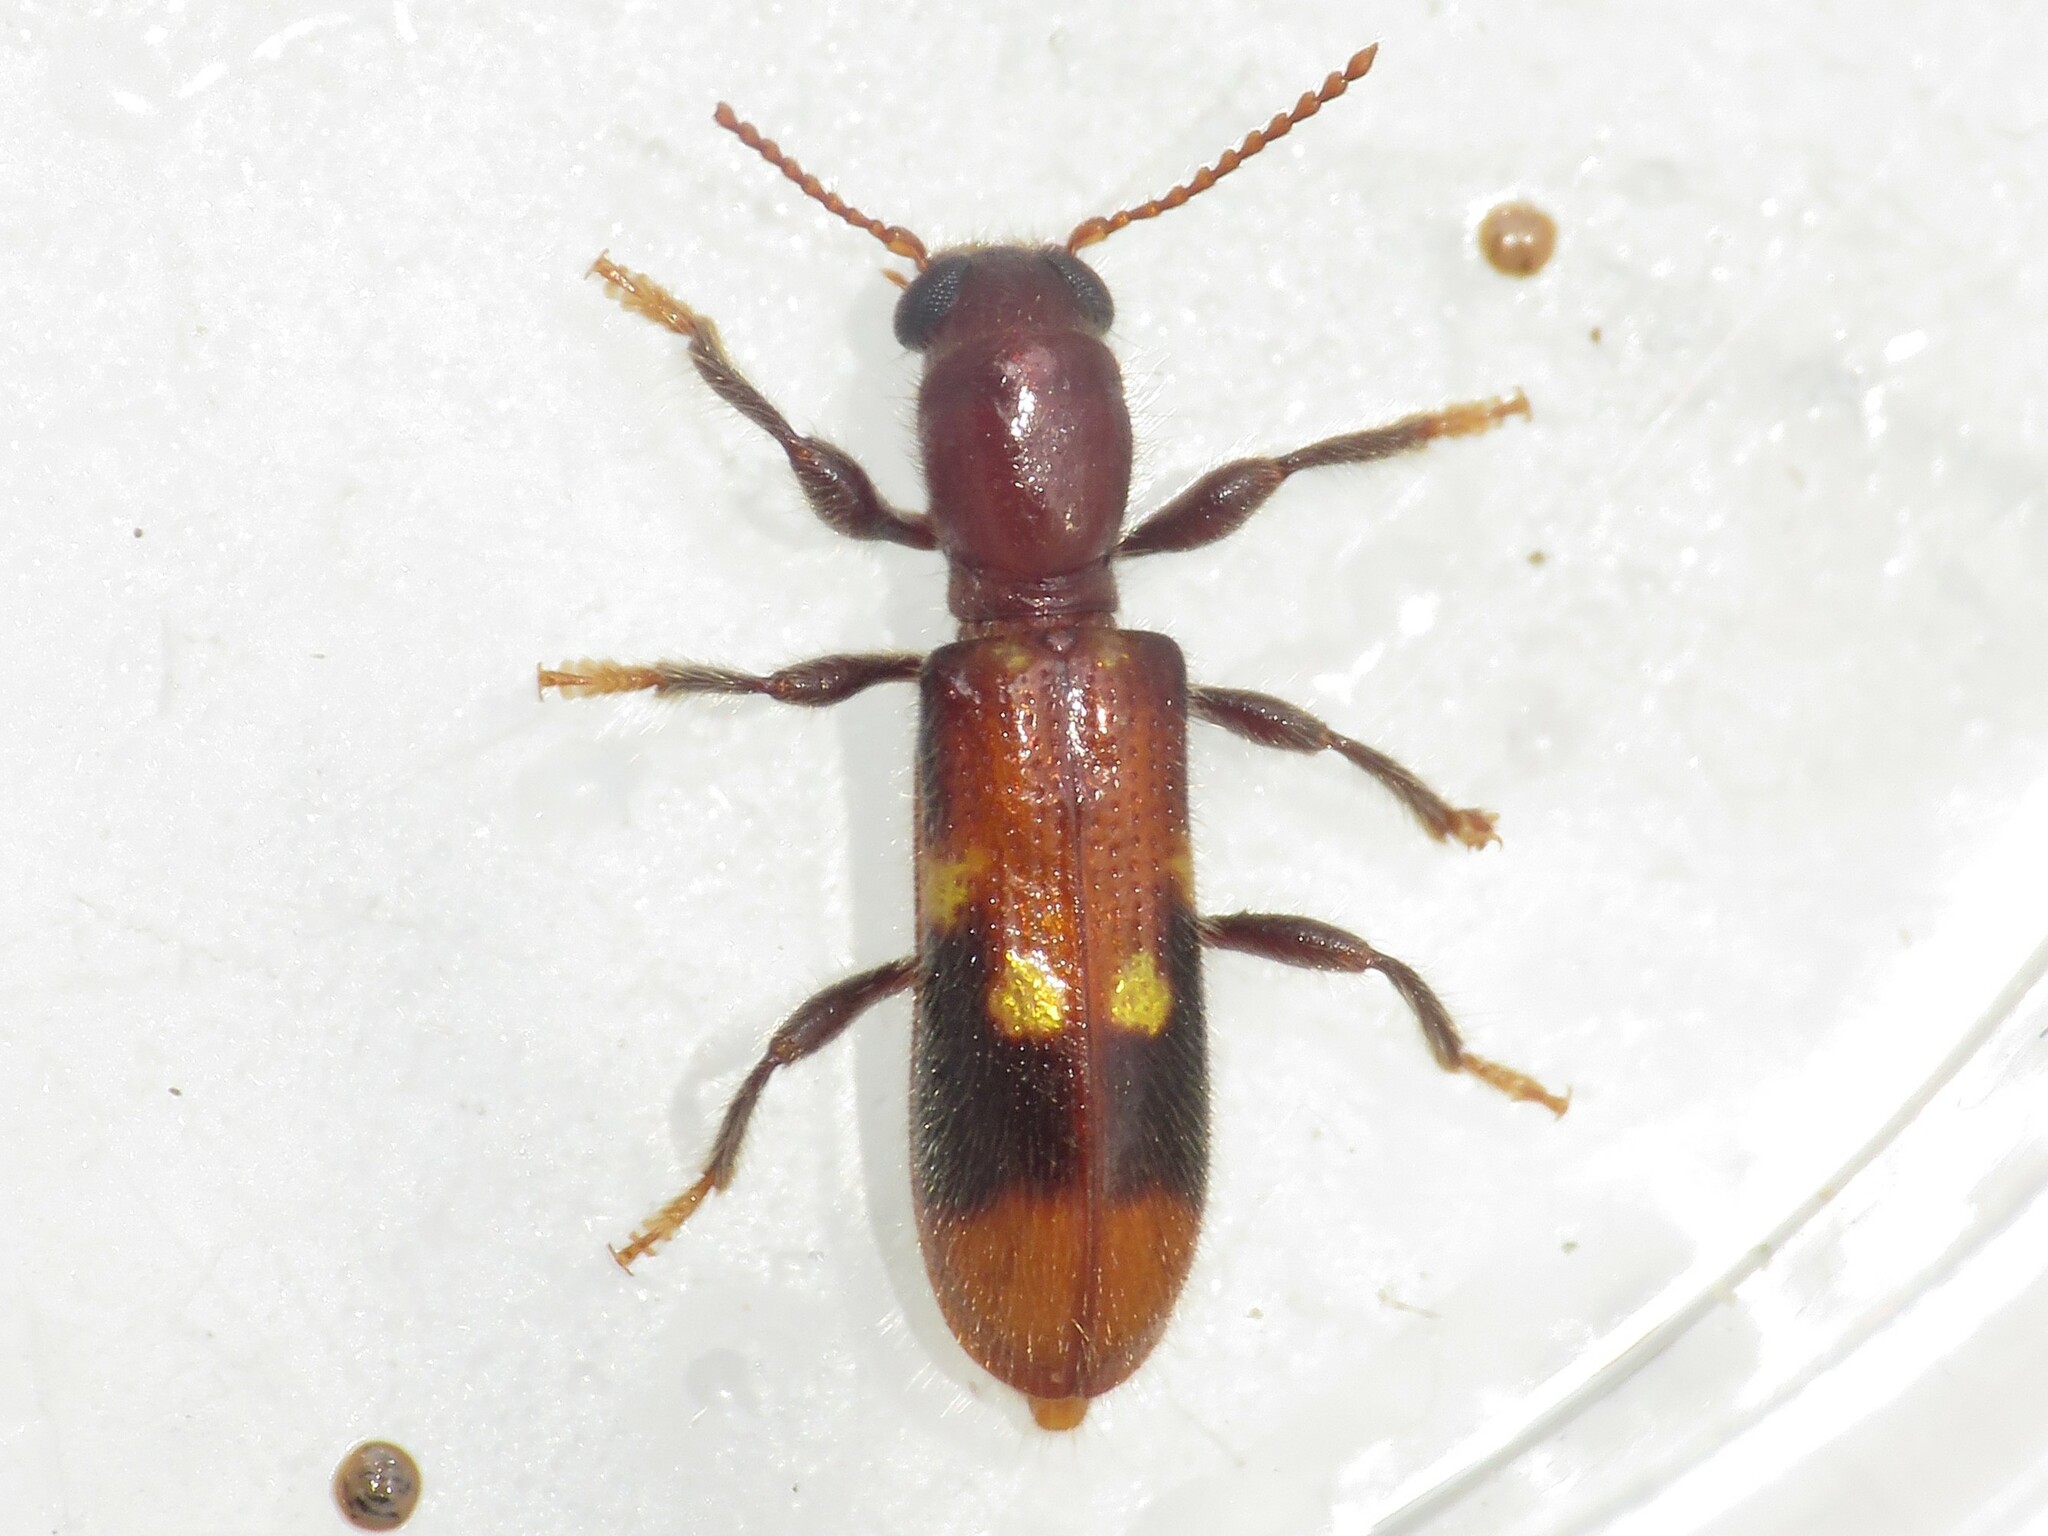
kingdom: Animalia
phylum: Arthropoda
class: Insecta
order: Coleoptera
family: Cleridae
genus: Priocera
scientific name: Priocera castanea
